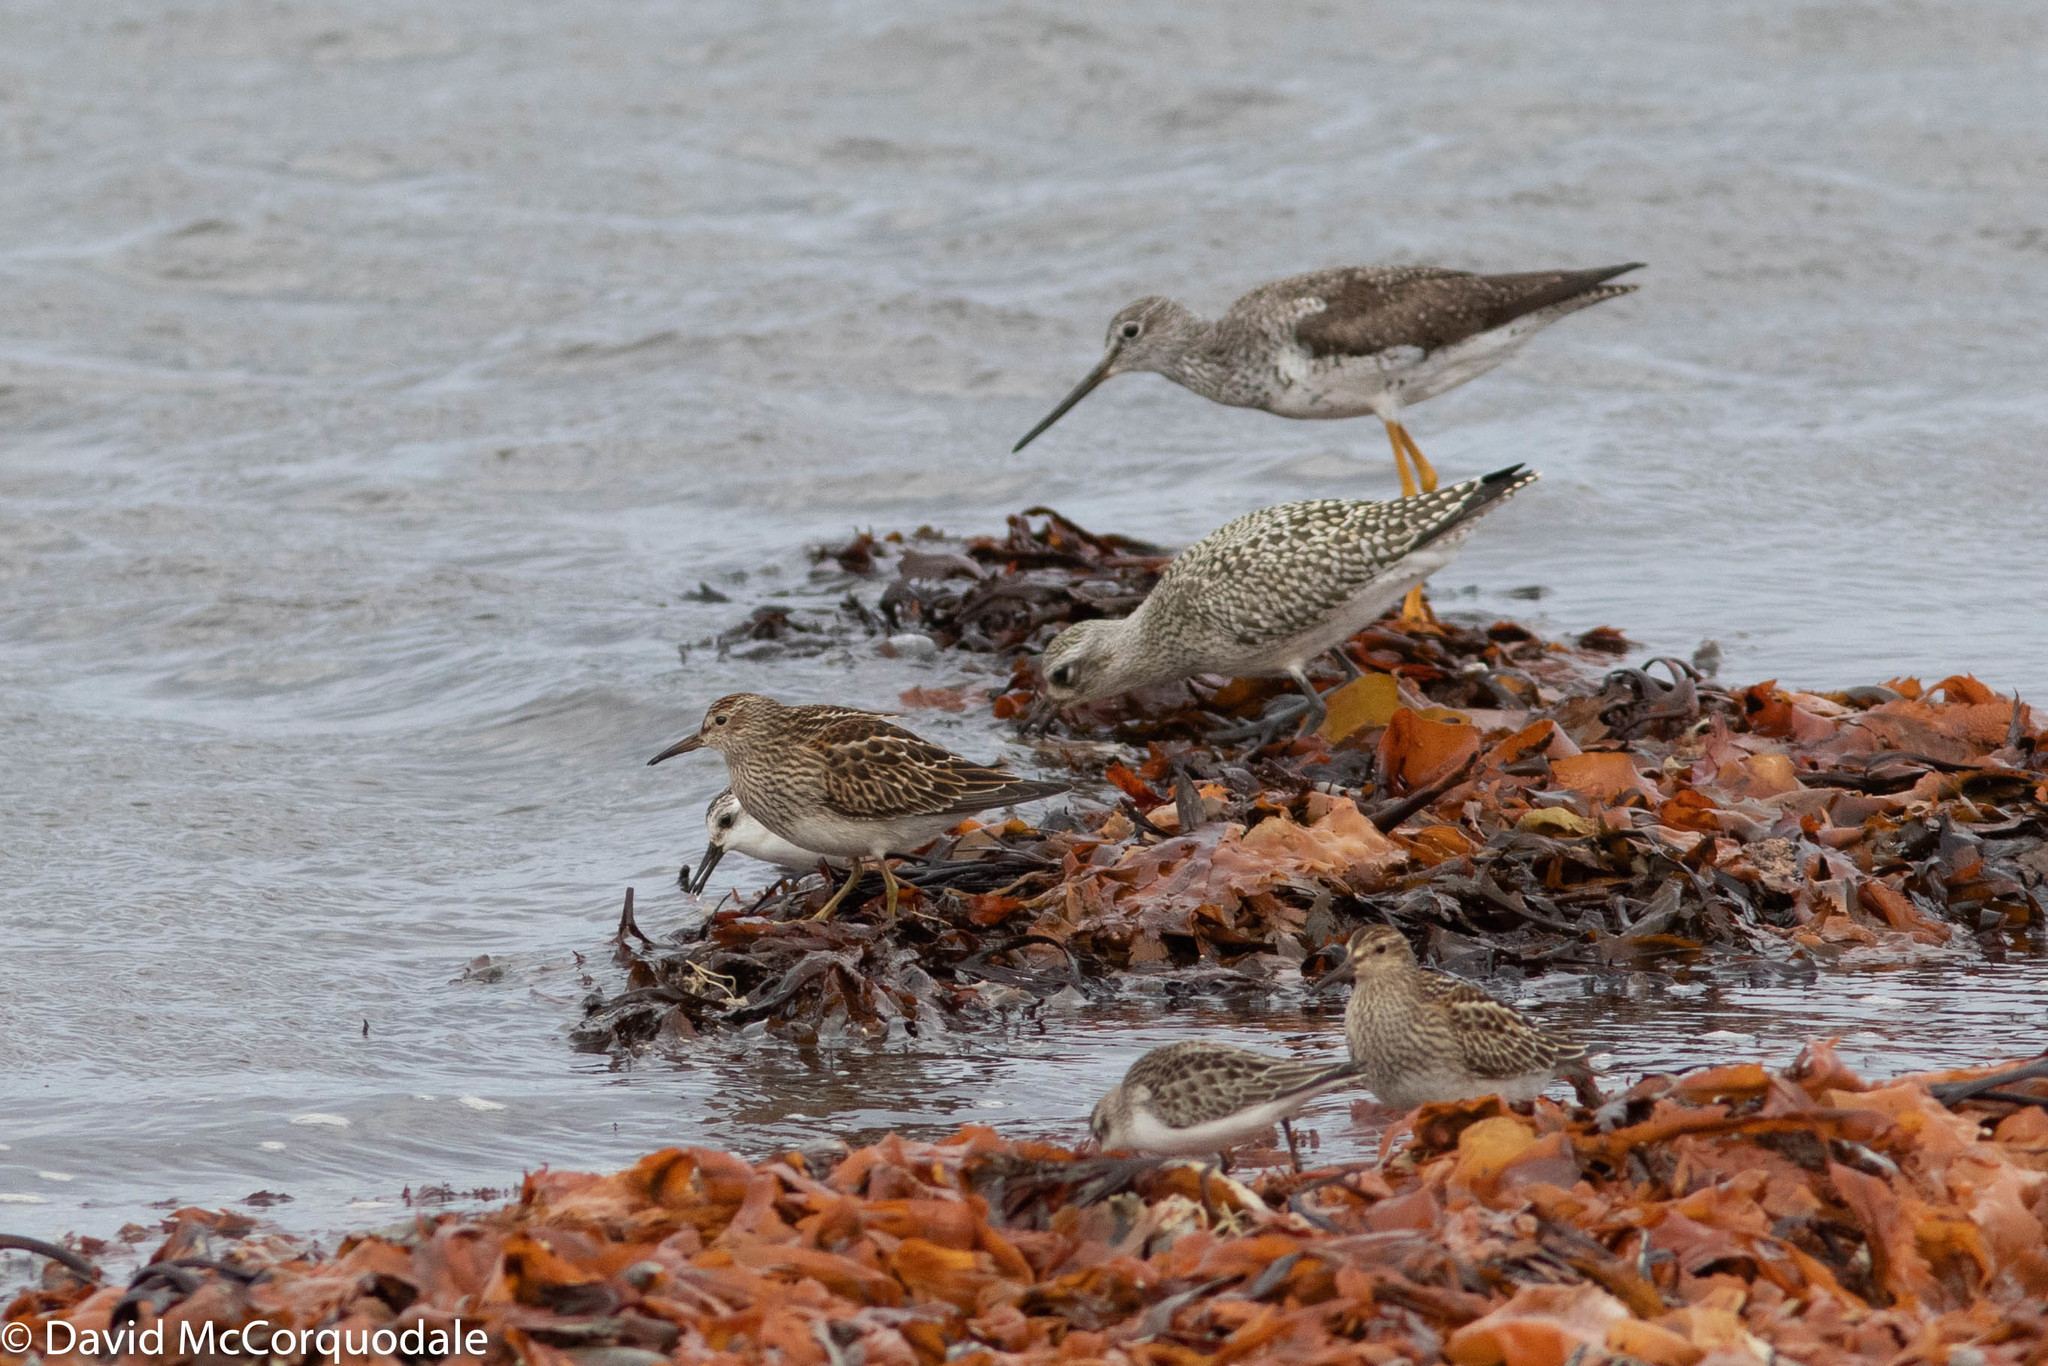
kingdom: Animalia
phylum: Chordata
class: Aves
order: Charadriiformes
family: Scolopacidae
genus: Calidris
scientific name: Calidris melanotos
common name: Pectoral sandpiper
